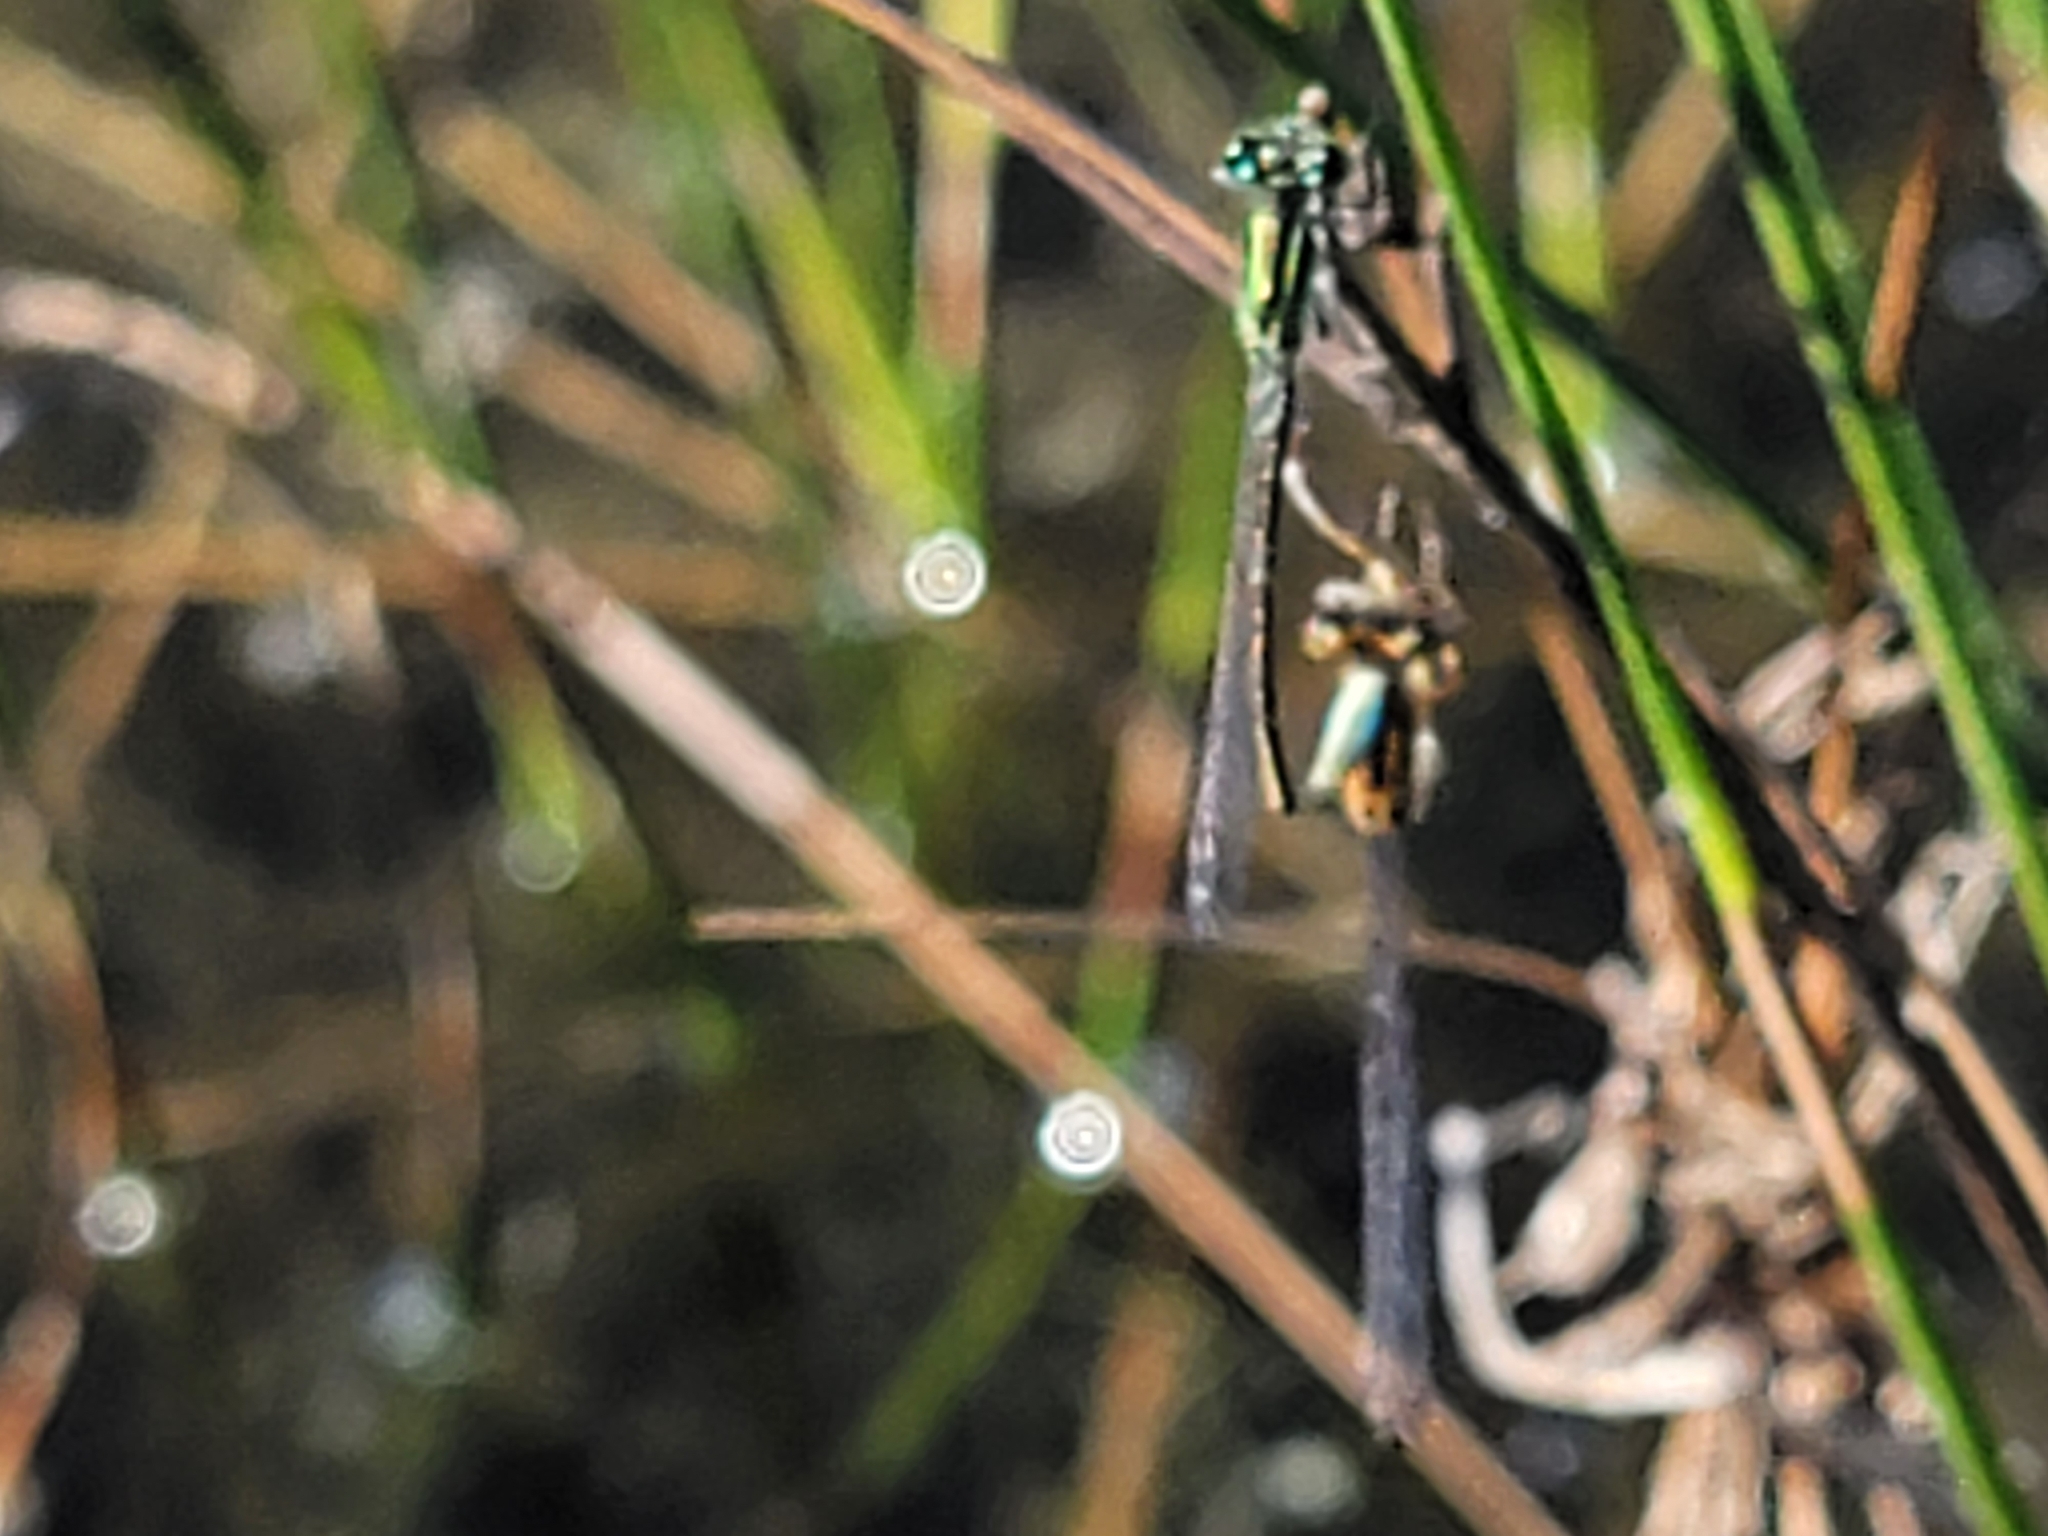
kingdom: Animalia
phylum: Arthropoda
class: Insecta
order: Odonata
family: Coenagrionidae
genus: Ischnura
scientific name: Ischnura ramburii
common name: Rambur's forktail
